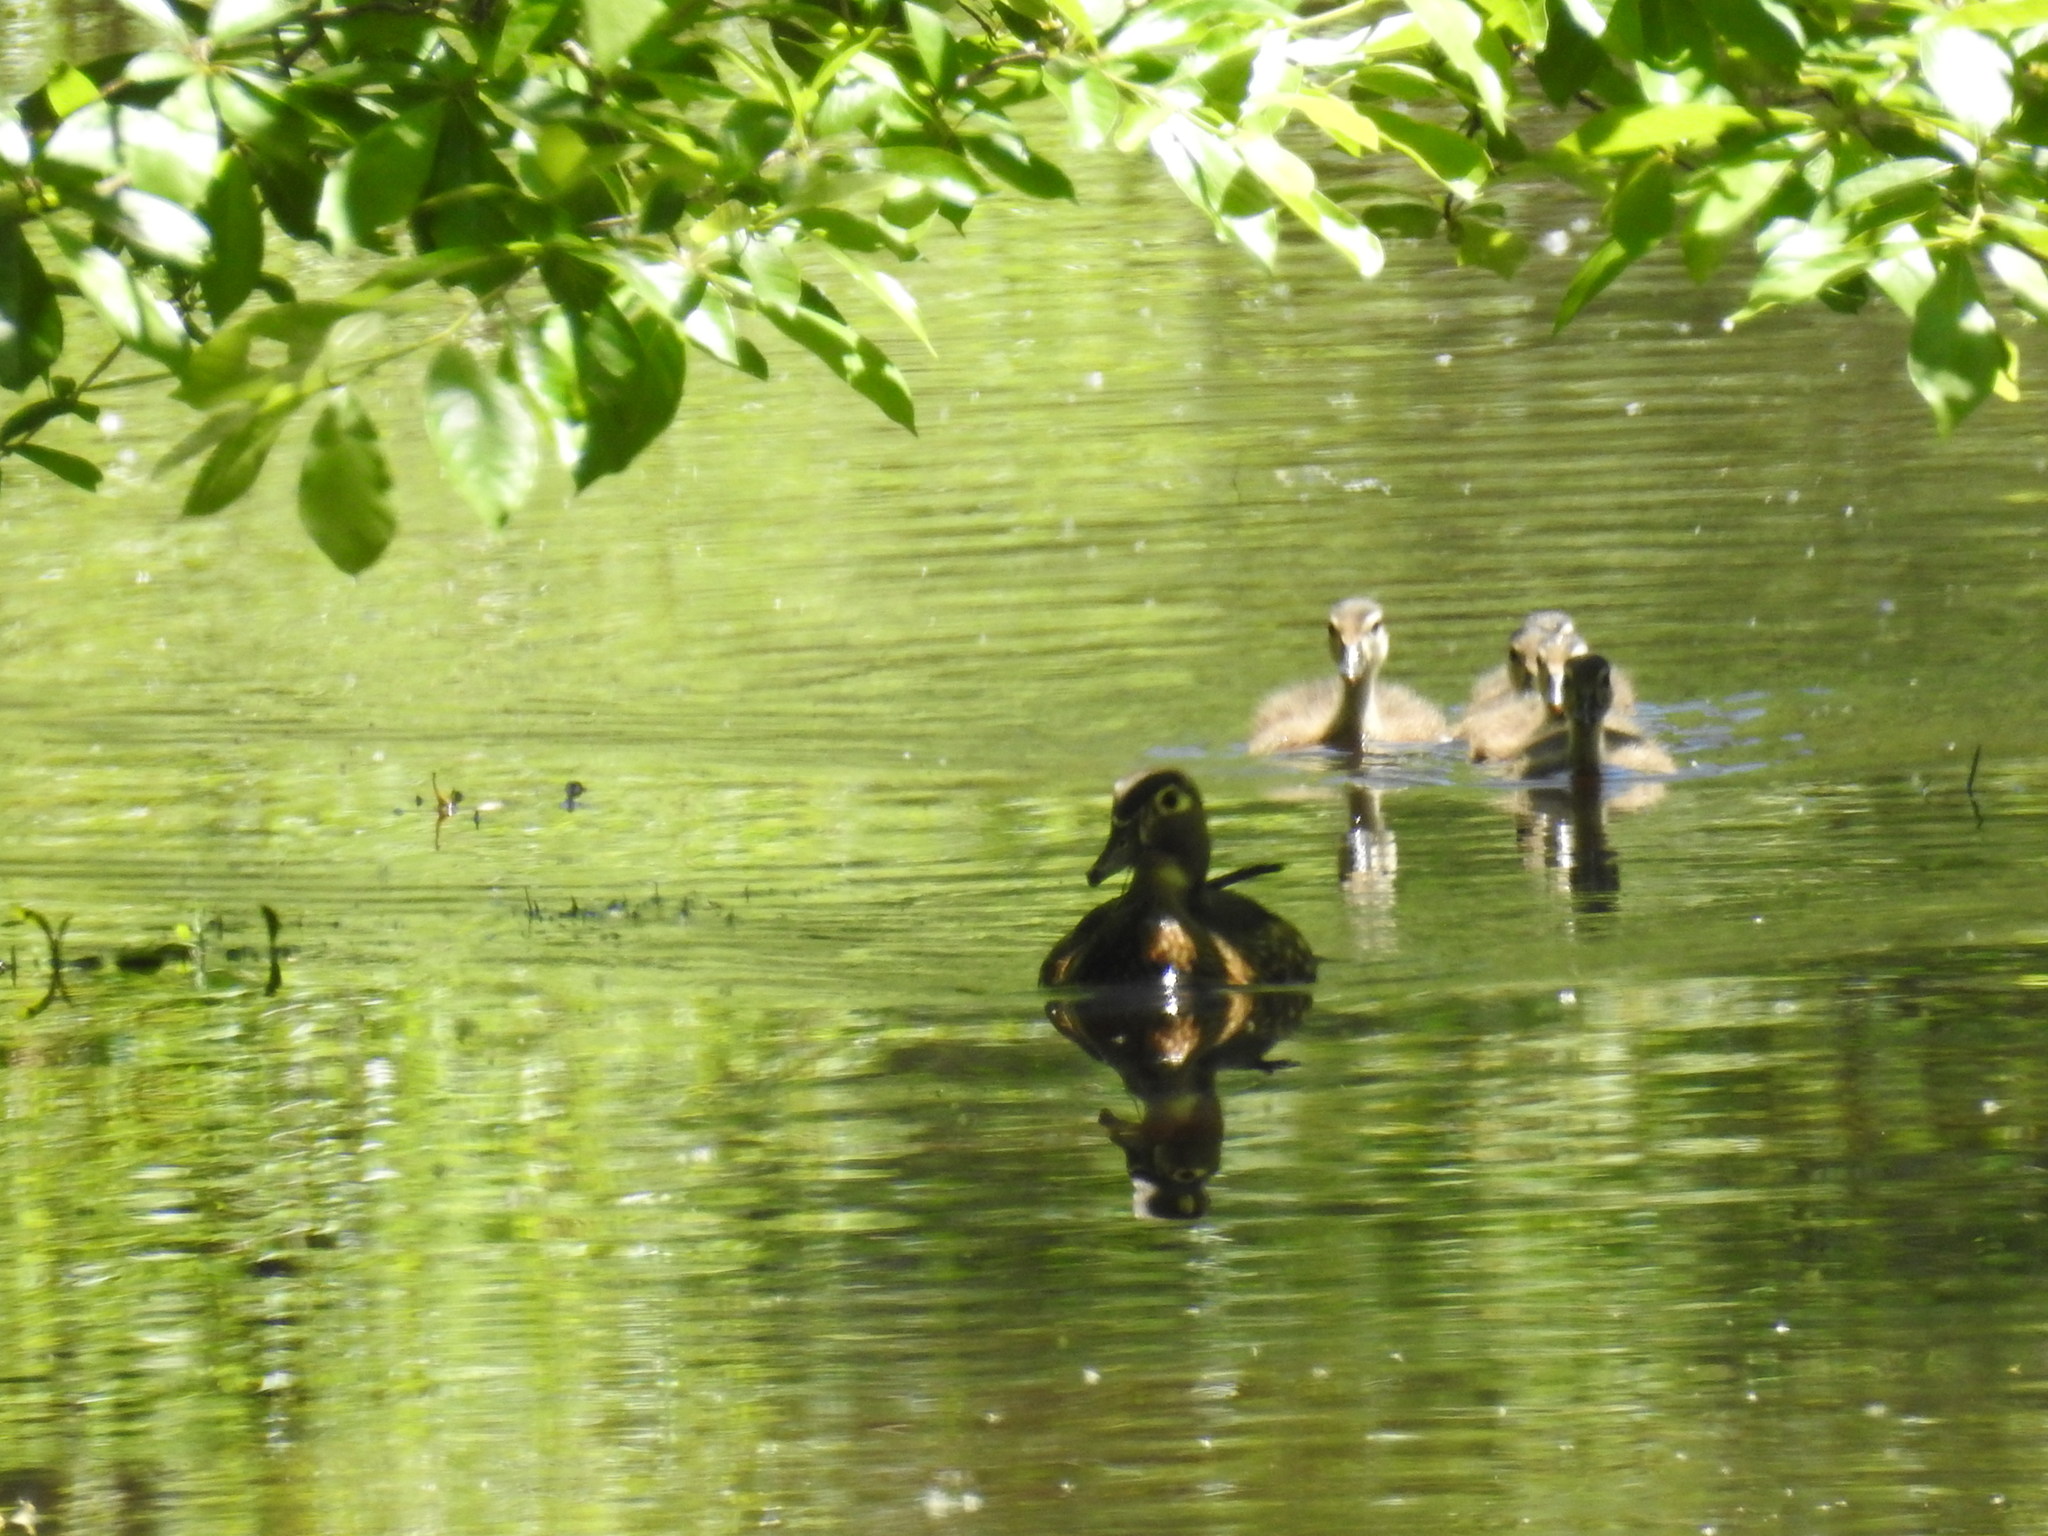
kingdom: Animalia
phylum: Chordata
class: Aves
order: Anseriformes
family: Anatidae
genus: Aix
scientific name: Aix sponsa
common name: Wood duck
